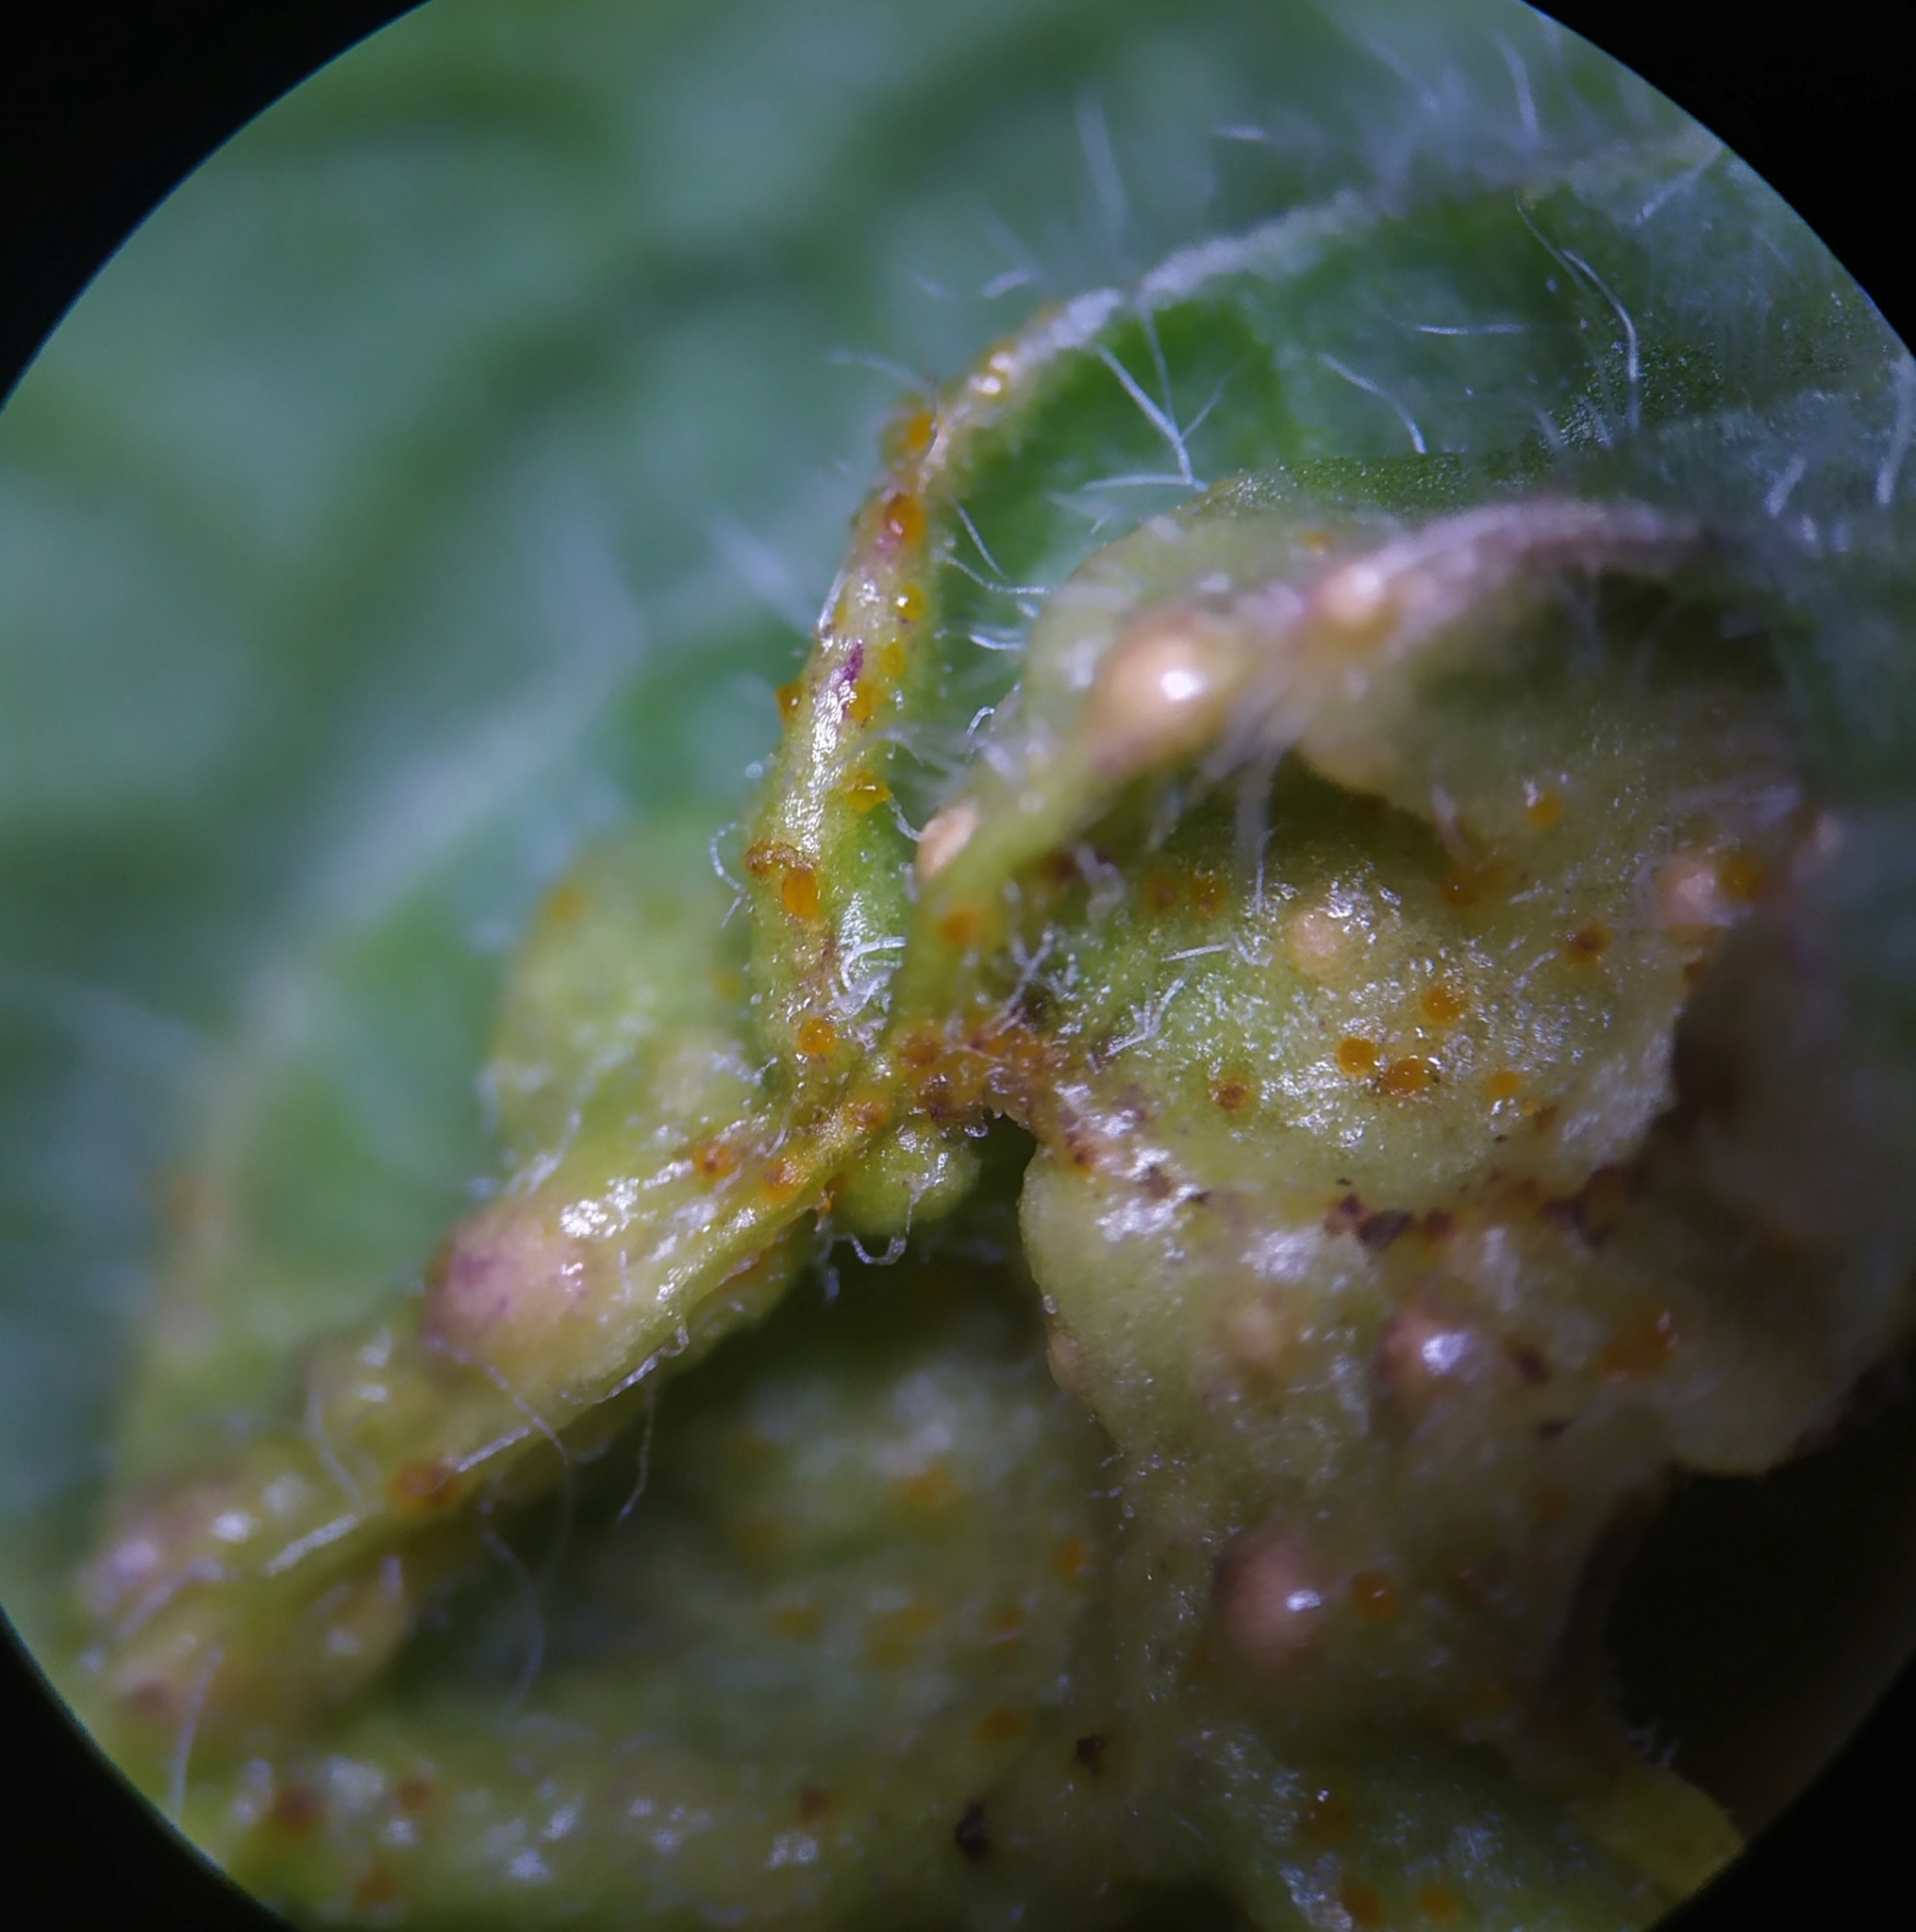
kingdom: Fungi
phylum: Basidiomycota
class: Pucciniomycetes
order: Pucciniales
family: Pucciniaceae
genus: Puccinia
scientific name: Puccinia menthae
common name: Mint rust
